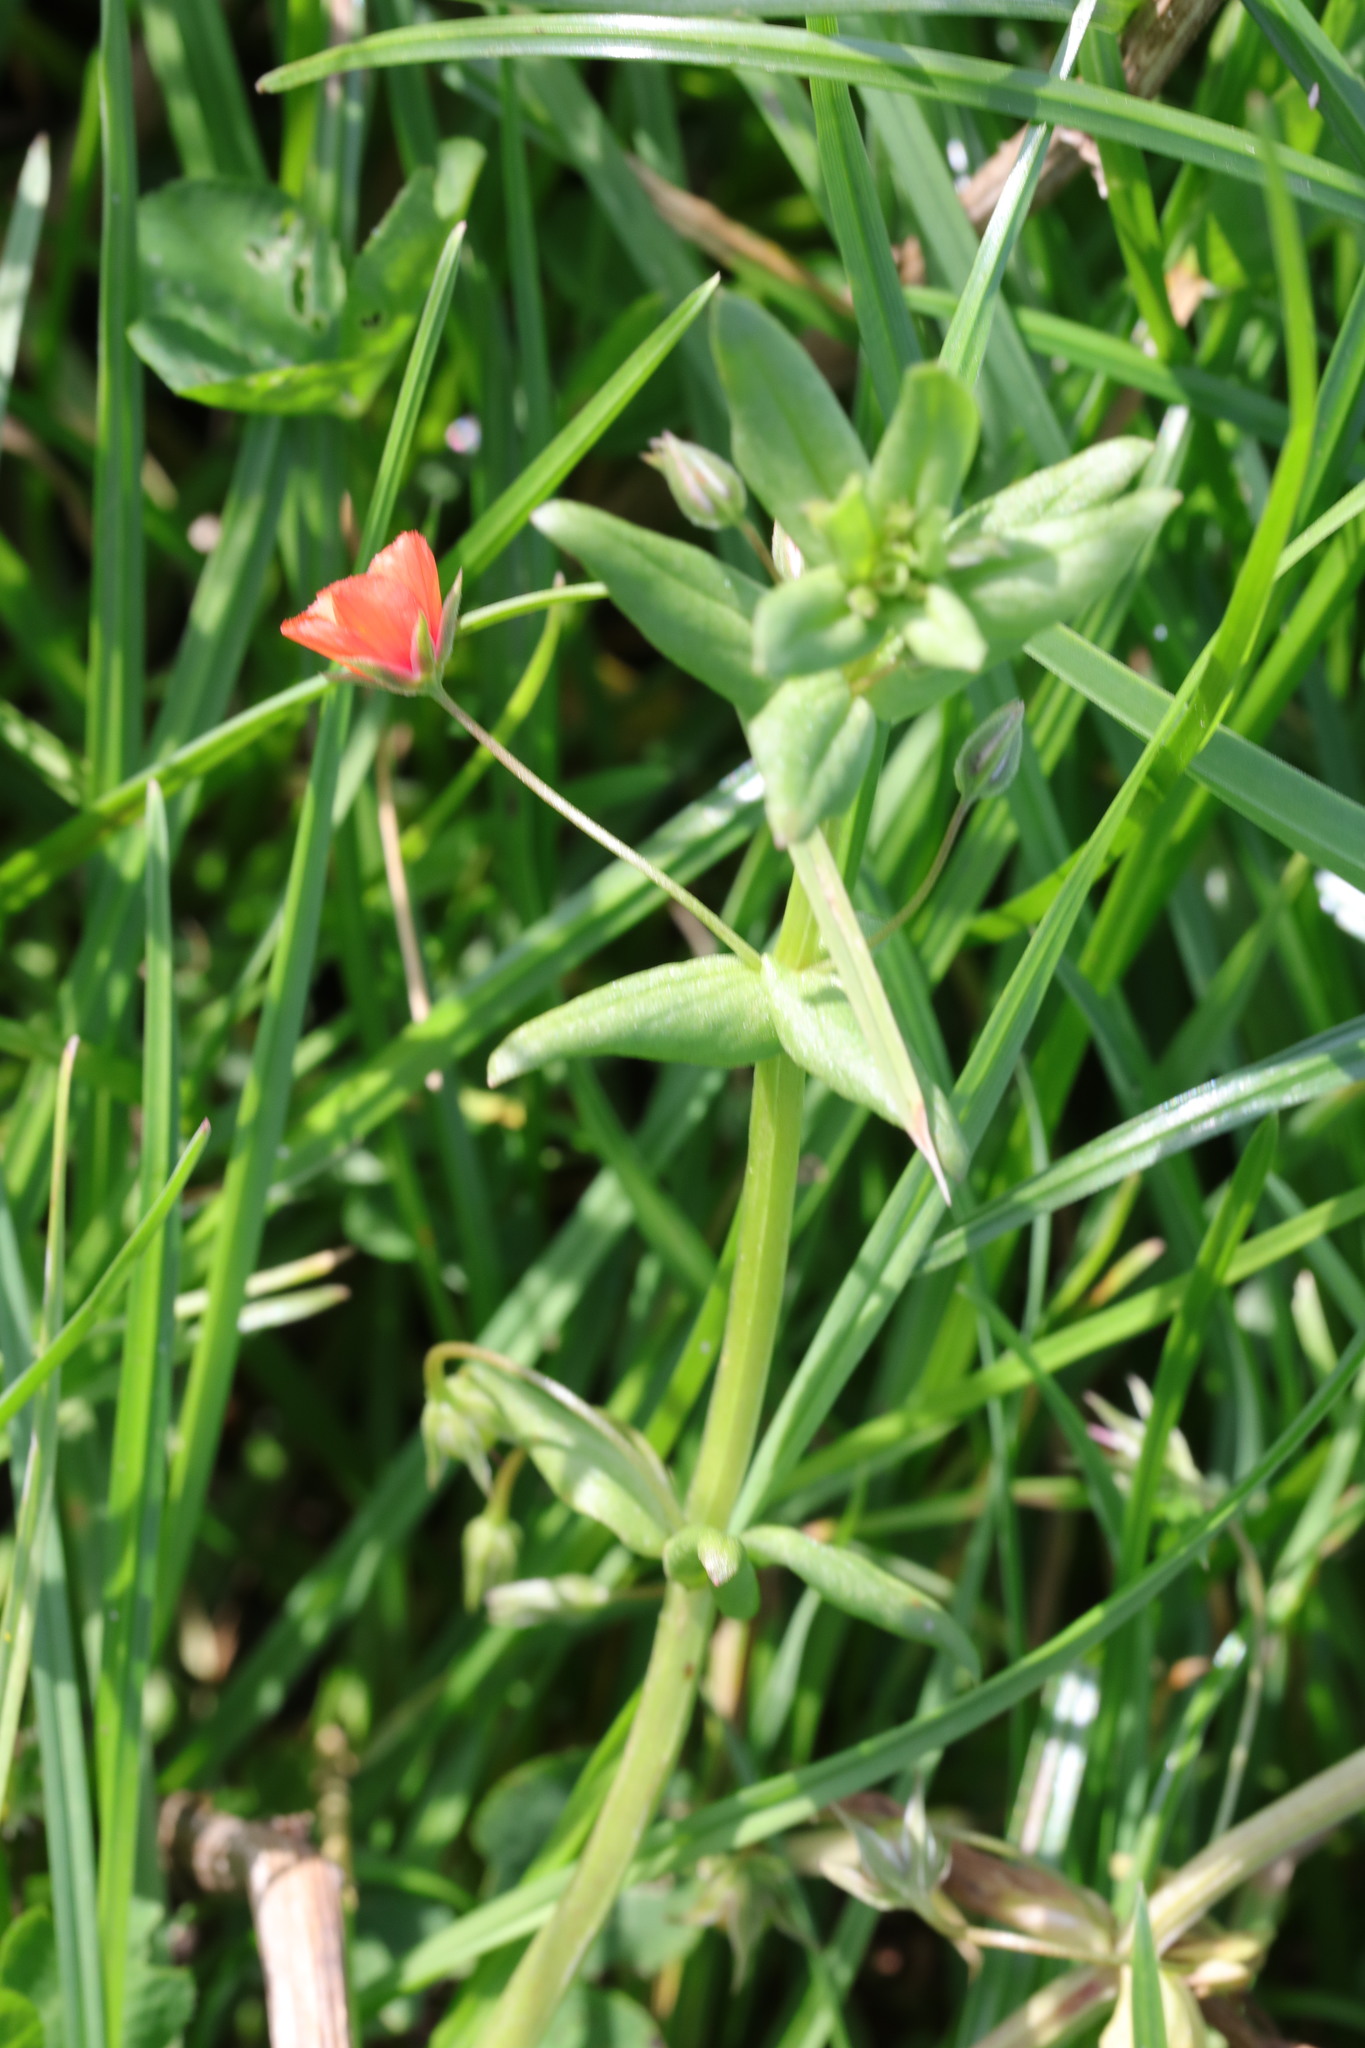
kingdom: Plantae
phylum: Tracheophyta
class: Magnoliopsida
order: Ericales
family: Primulaceae
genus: Lysimachia
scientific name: Lysimachia arvensis
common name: Scarlet pimpernel
